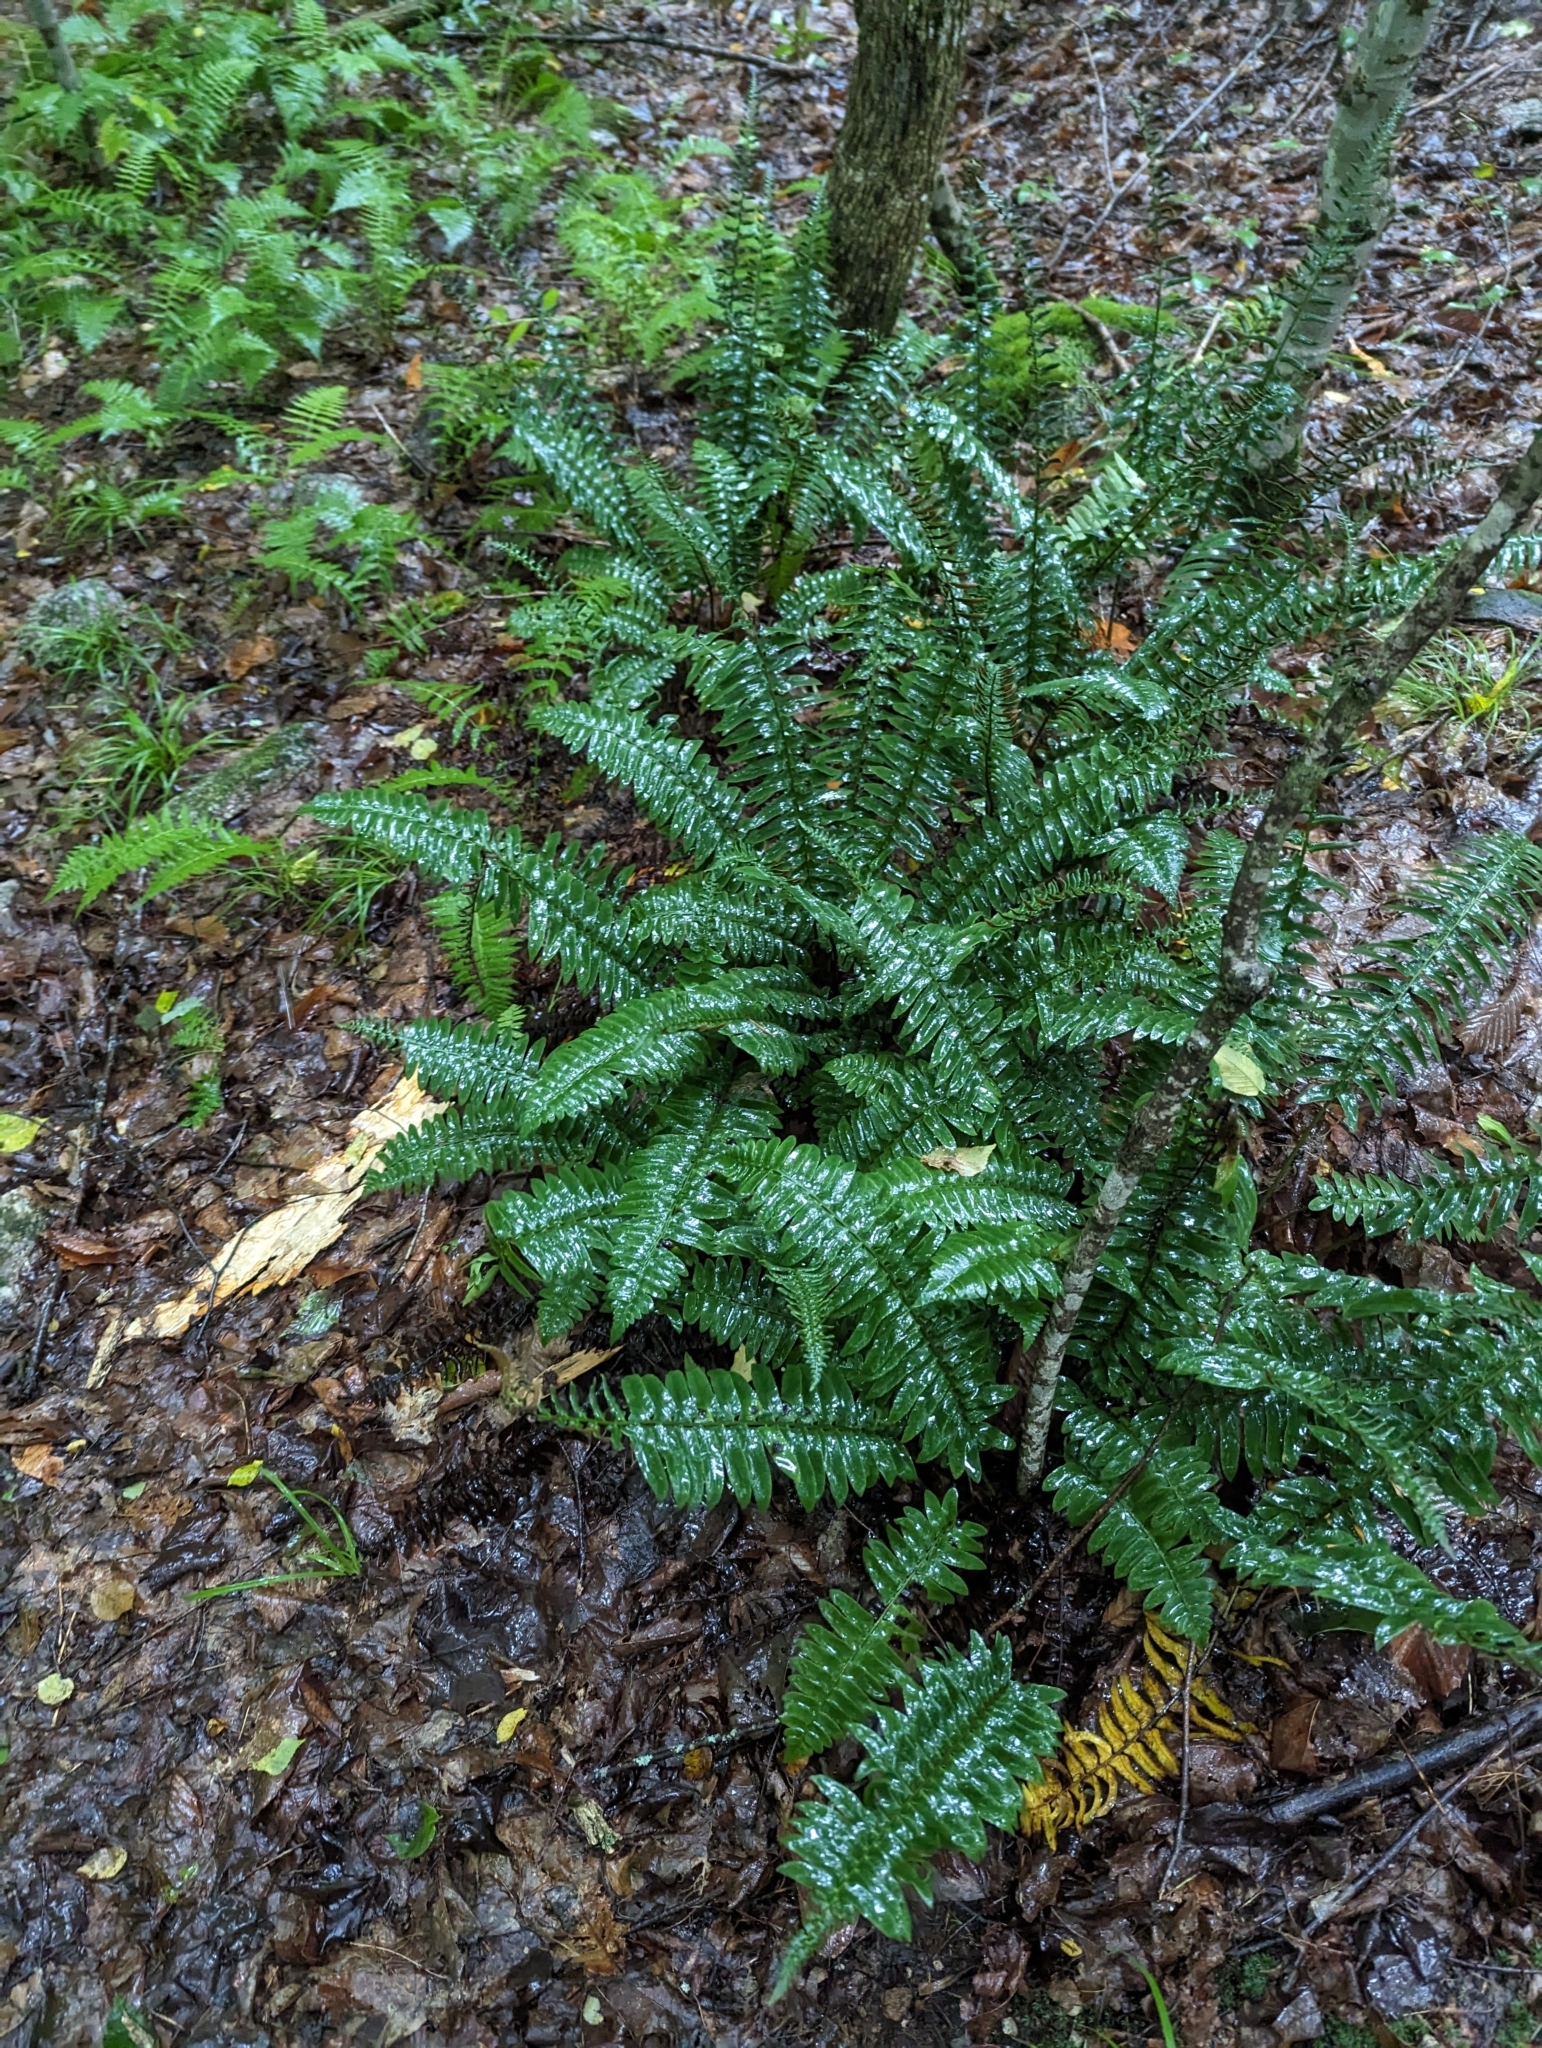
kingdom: Plantae
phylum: Tracheophyta
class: Polypodiopsida
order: Polypodiales
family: Dryopteridaceae
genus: Polystichum
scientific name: Polystichum acrostichoides
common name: Christmas fern
